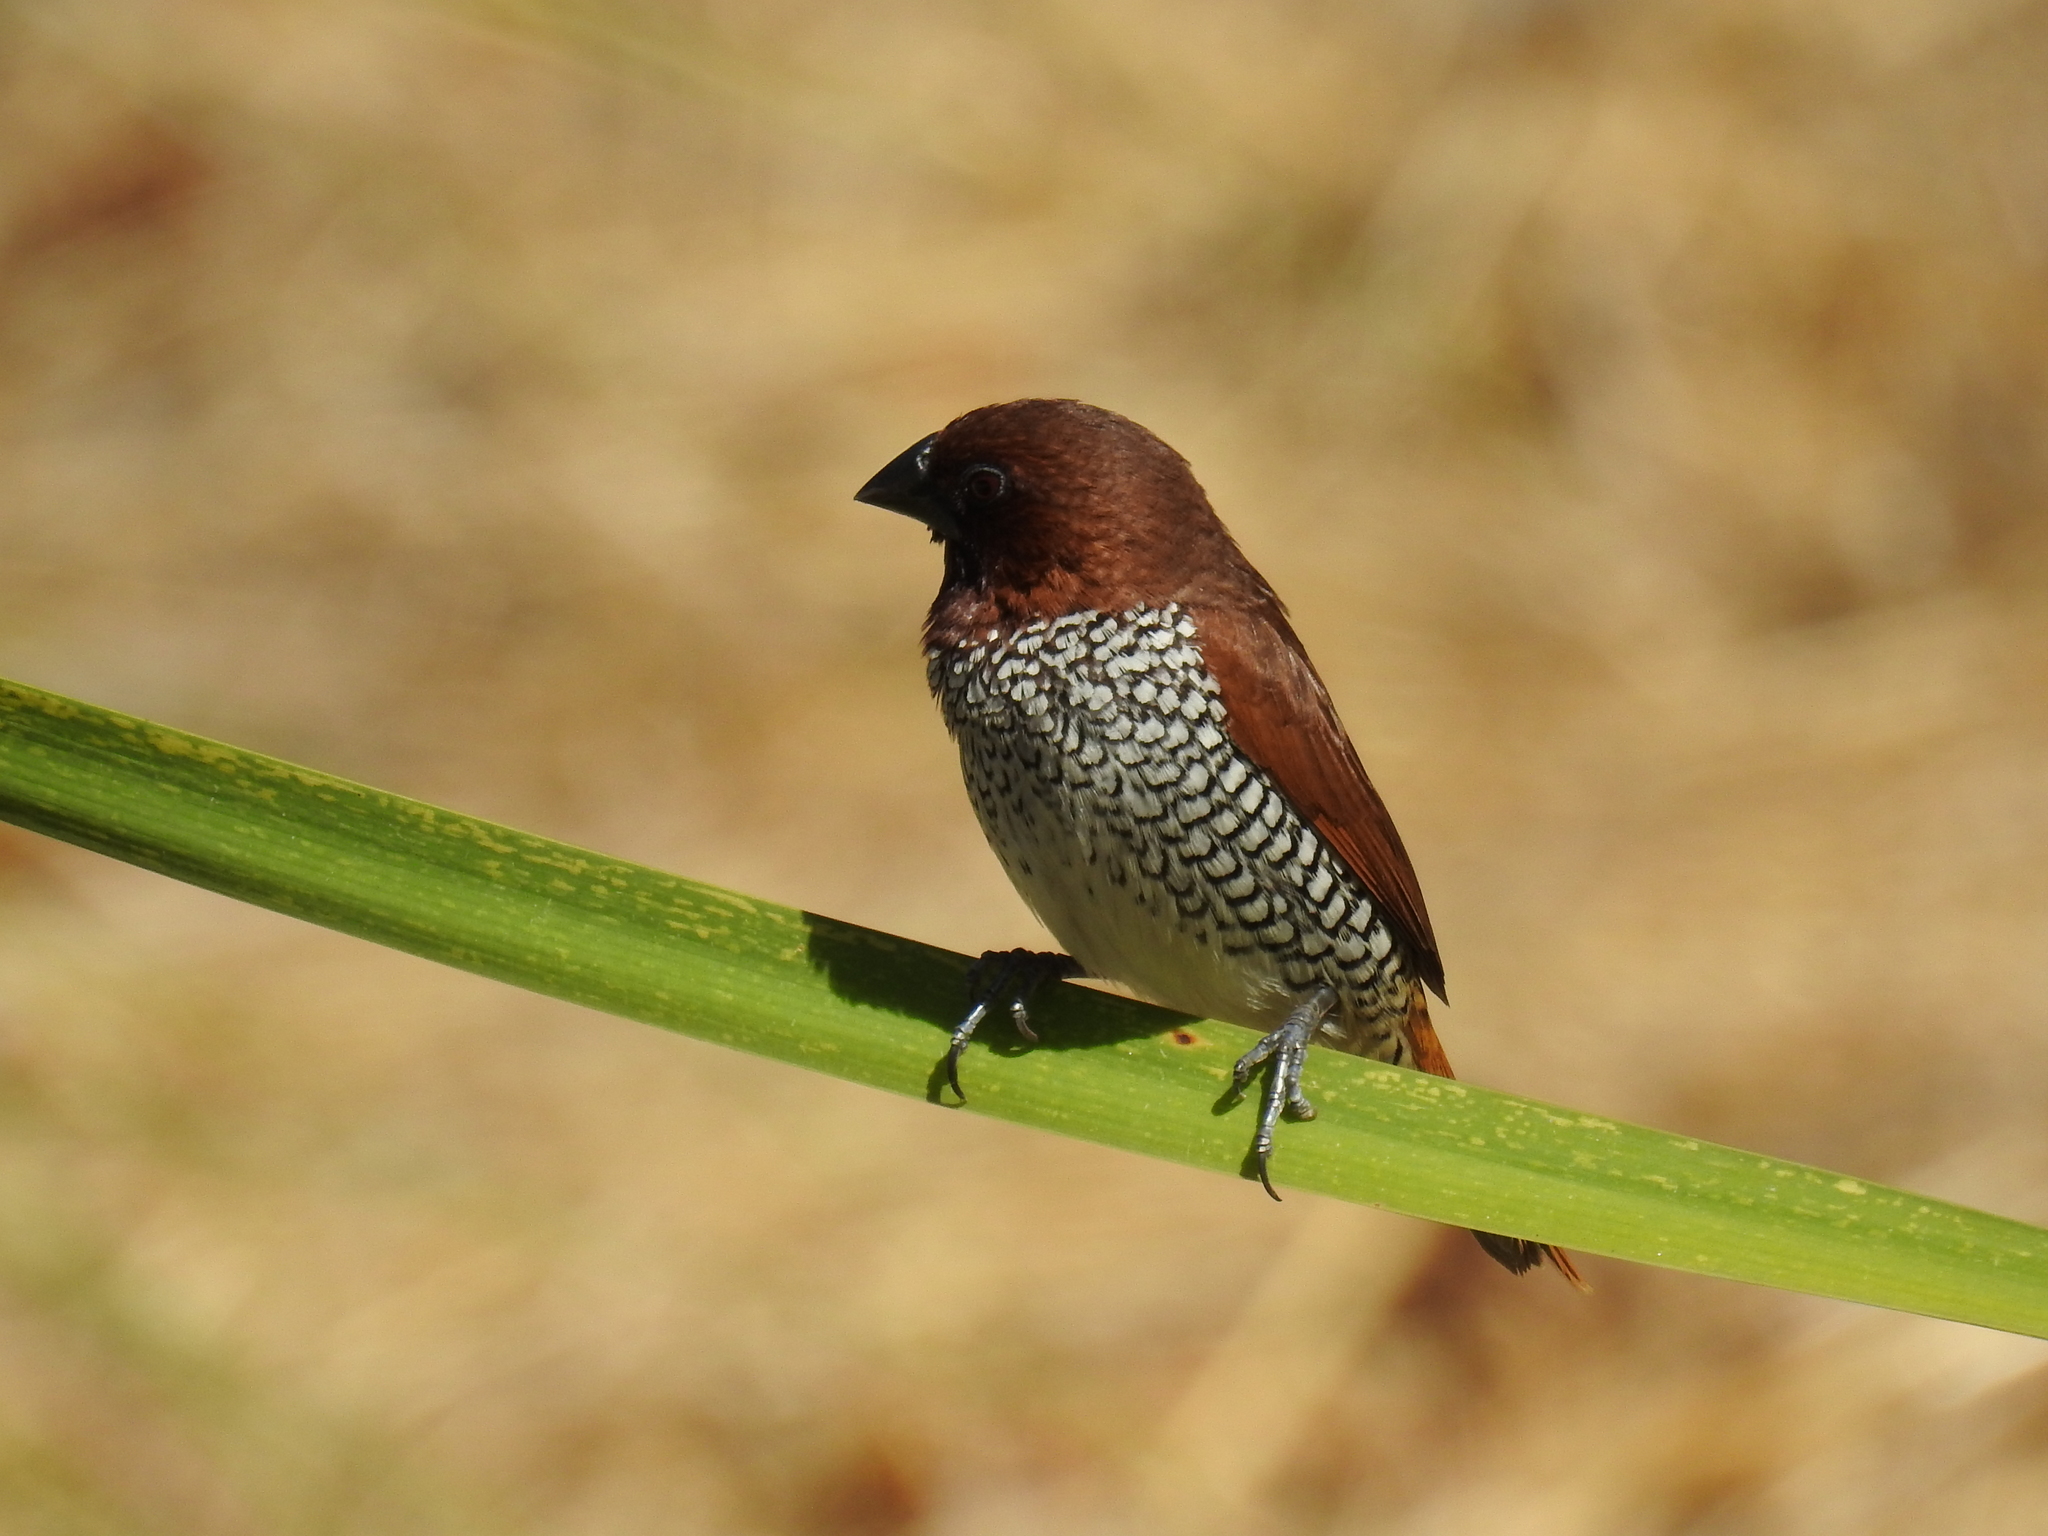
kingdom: Animalia
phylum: Chordata
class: Aves
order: Passeriformes
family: Estrildidae
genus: Lonchura
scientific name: Lonchura punctulata
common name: Scaly-breasted munia
